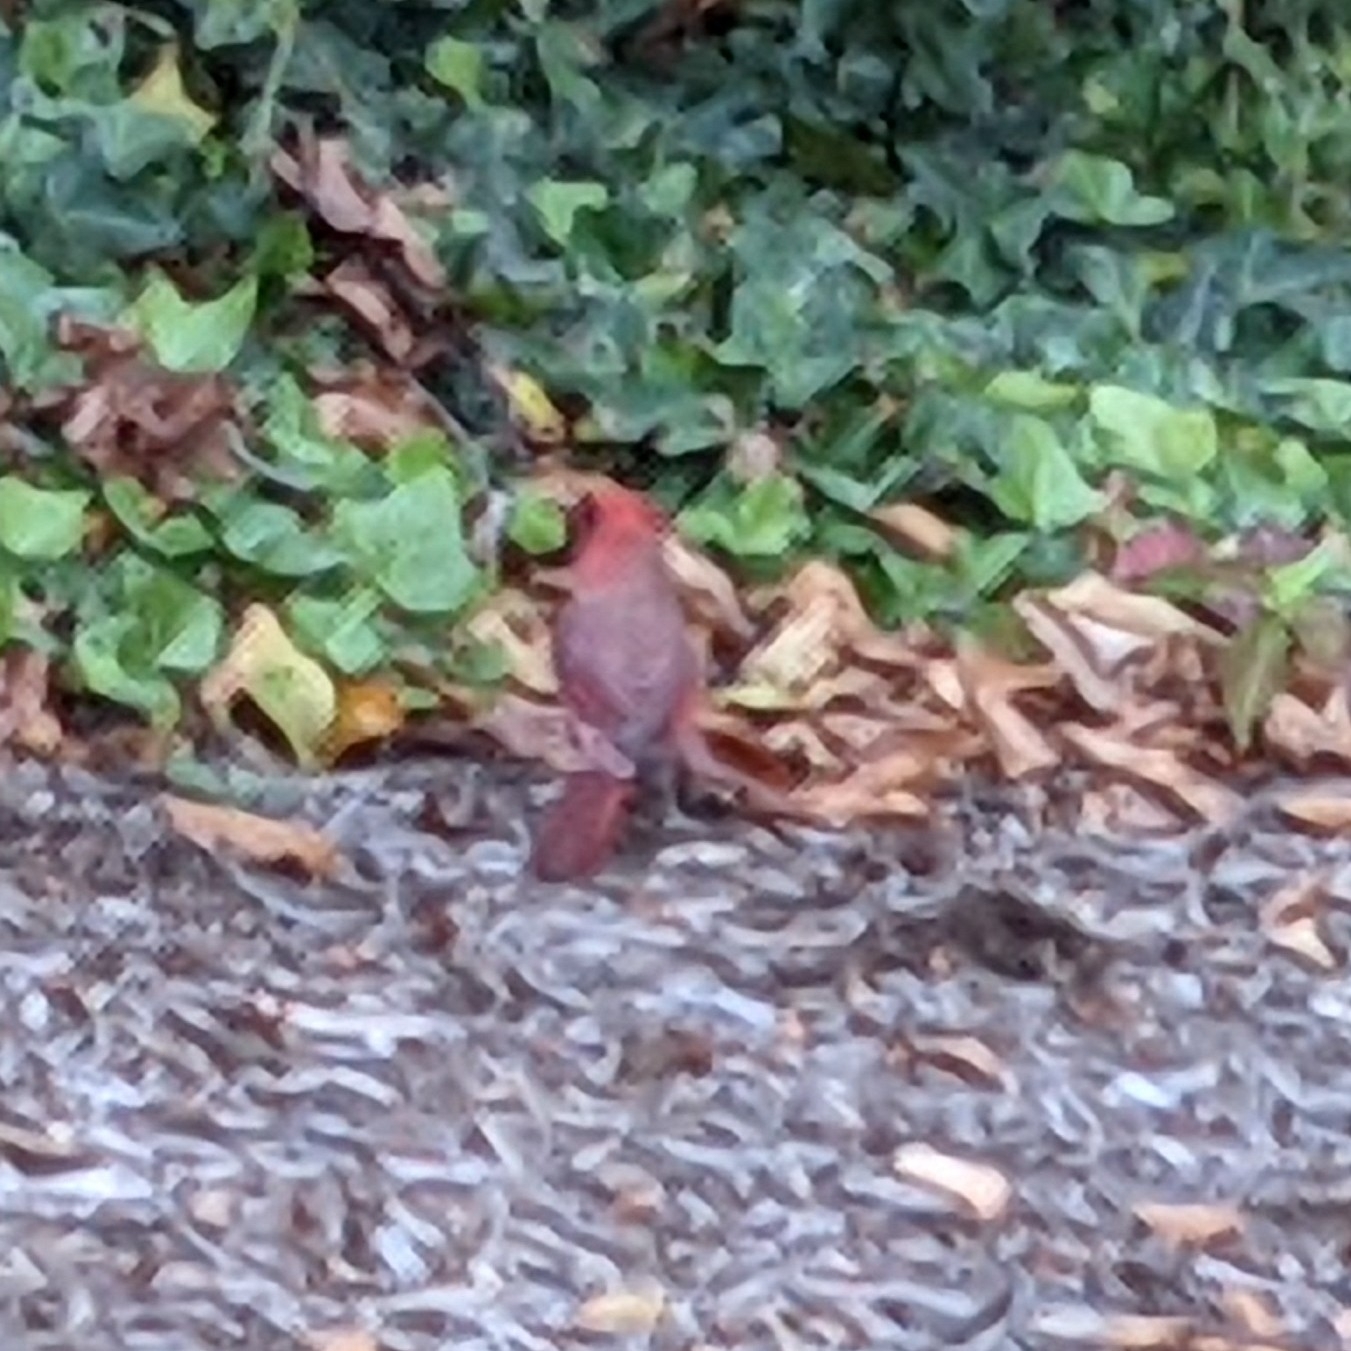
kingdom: Animalia
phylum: Chordata
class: Aves
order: Passeriformes
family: Cardinalidae
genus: Cardinalis
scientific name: Cardinalis cardinalis
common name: Northern cardinal
